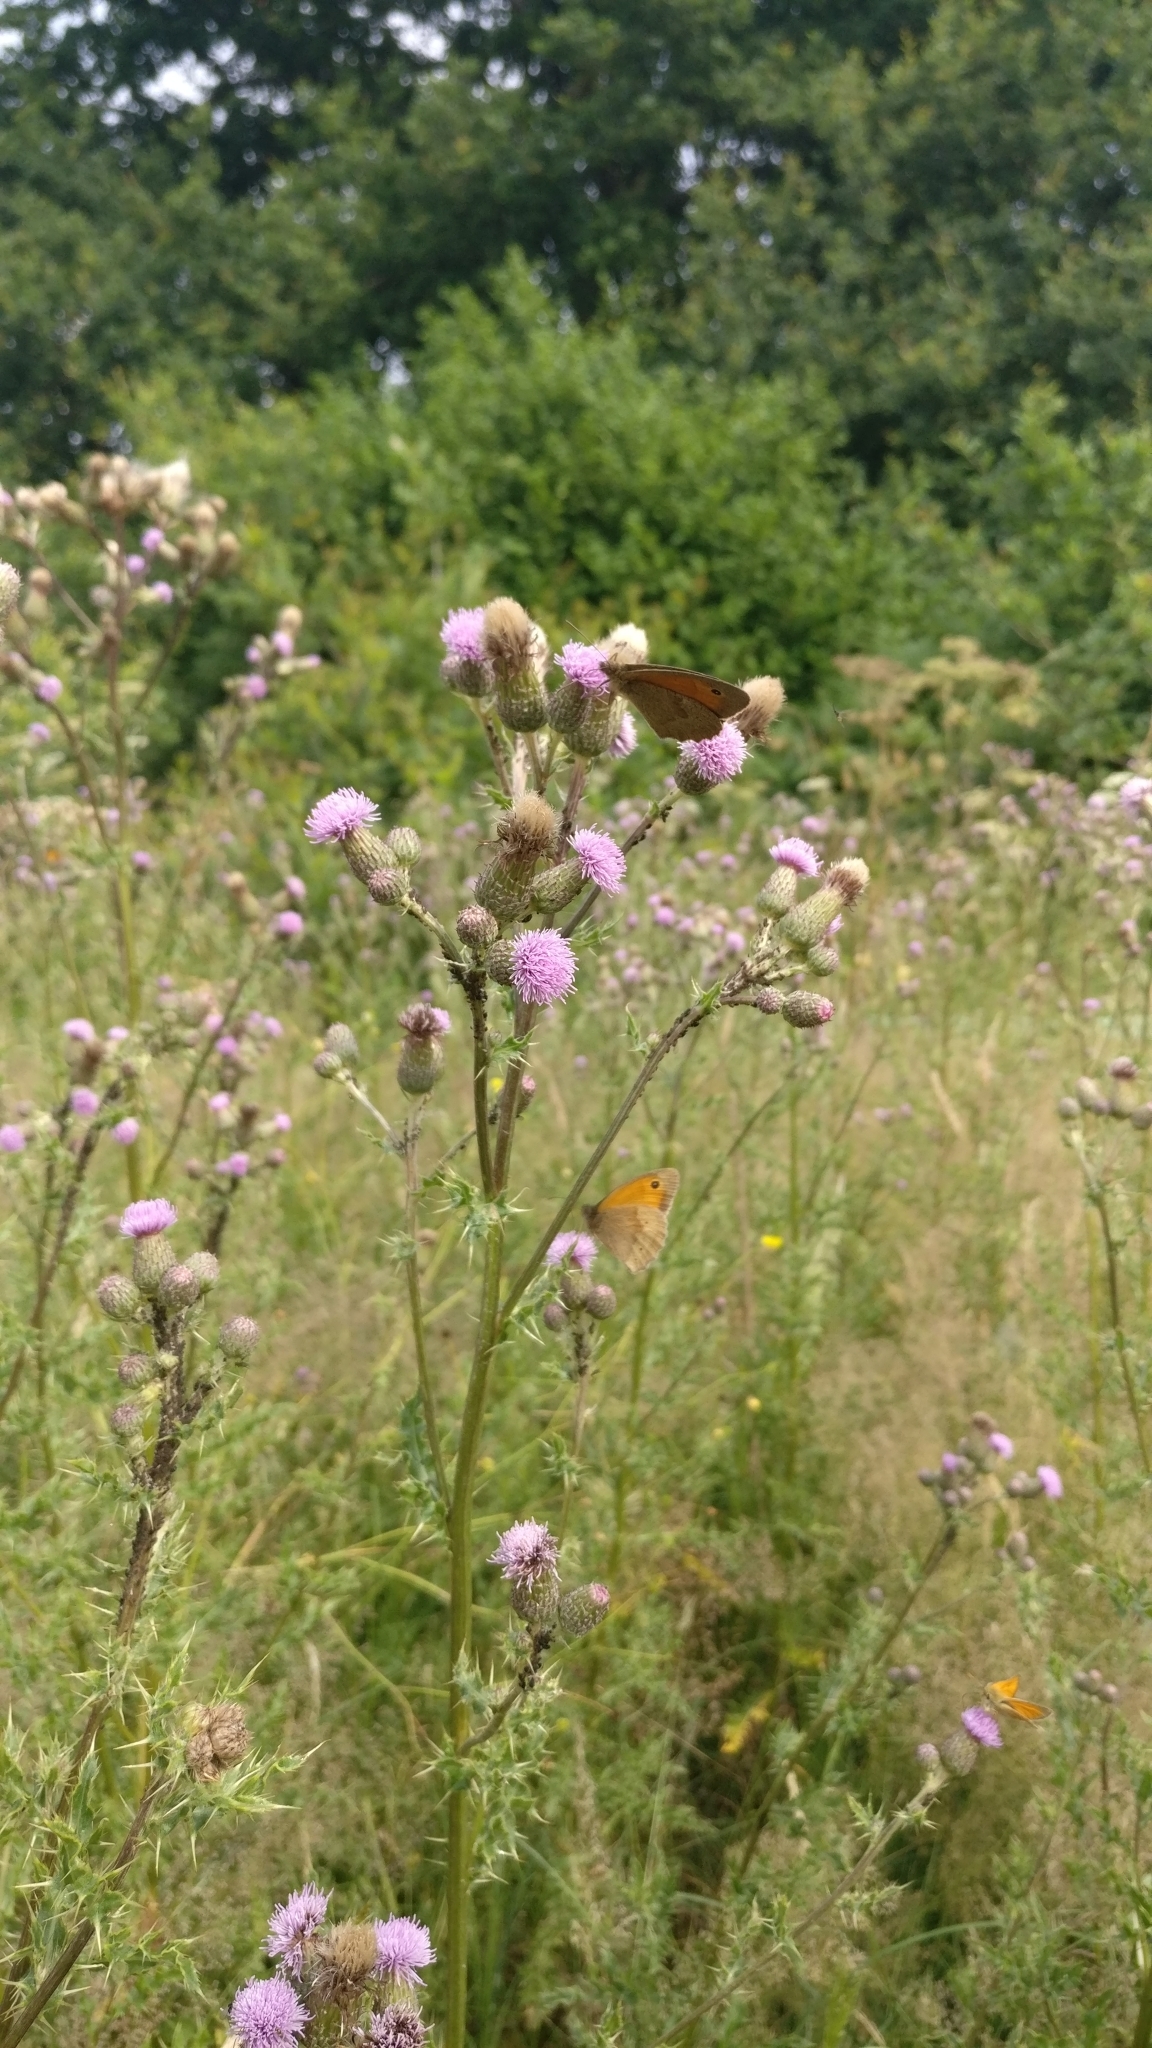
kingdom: Animalia
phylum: Arthropoda
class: Insecta
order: Lepidoptera
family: Nymphalidae
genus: Maniola
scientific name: Maniola jurtina
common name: Meadow brown
